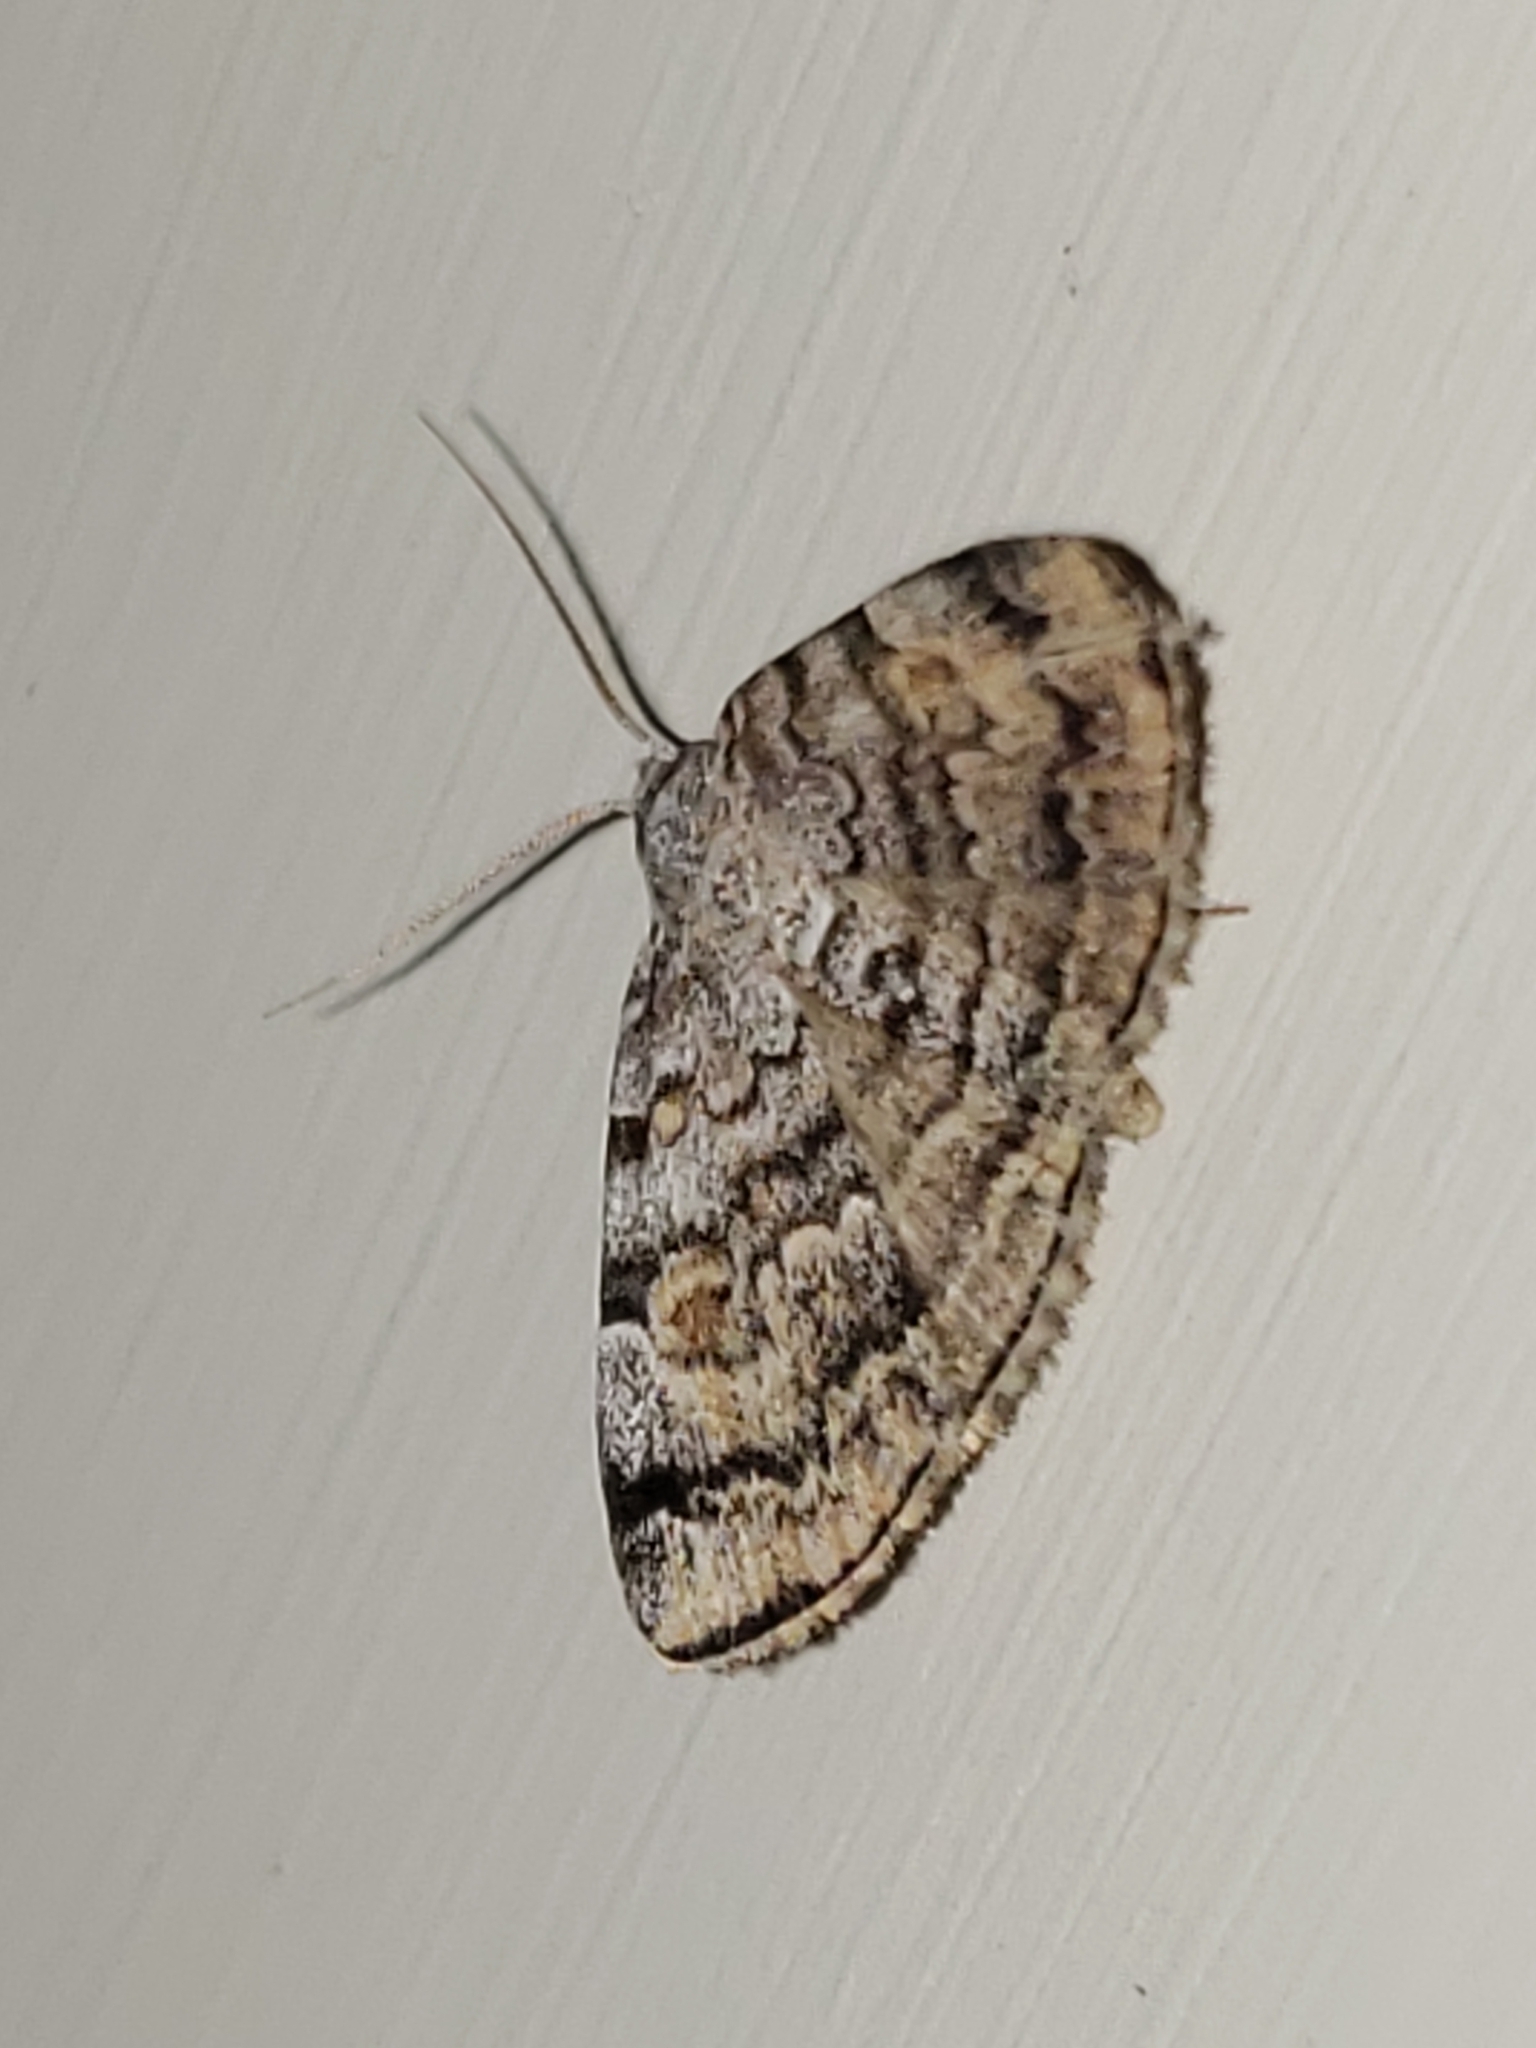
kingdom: Animalia
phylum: Arthropoda
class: Insecta
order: Lepidoptera
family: Erebidae
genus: Idia
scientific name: Idia americalis
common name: American idia moth
